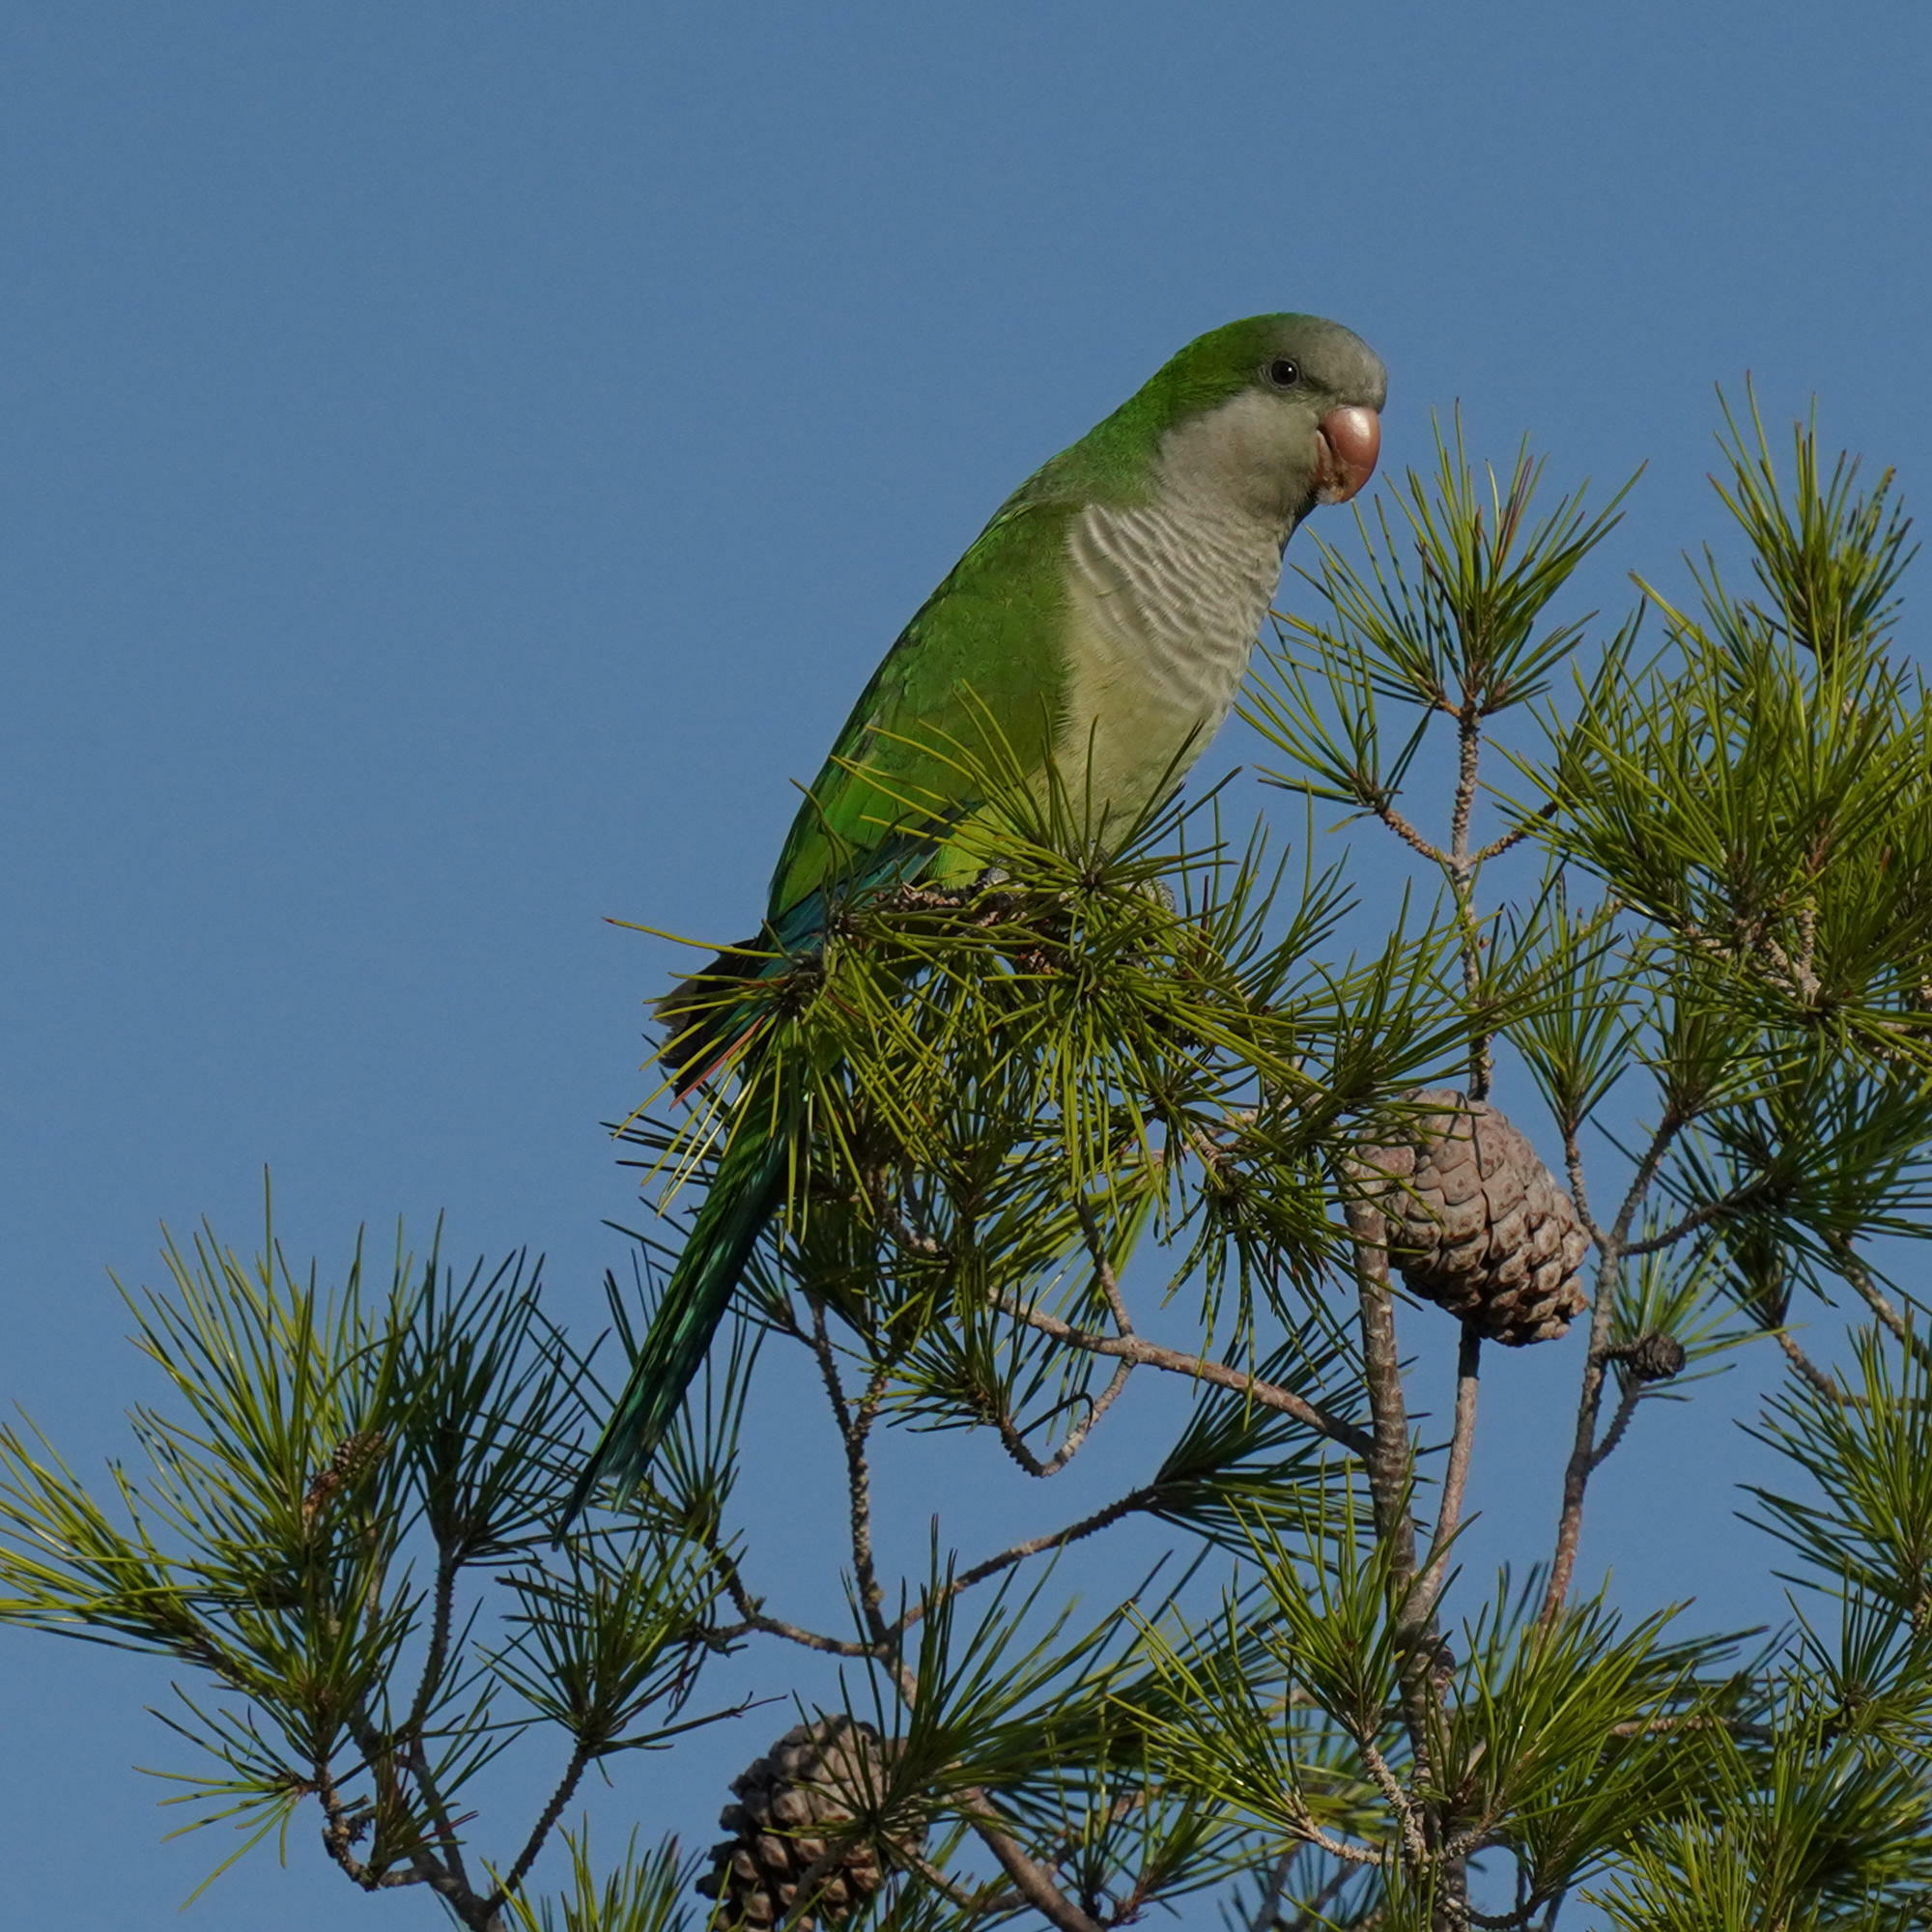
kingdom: Animalia
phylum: Chordata
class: Aves
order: Psittaciformes
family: Psittacidae
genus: Myiopsitta
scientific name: Myiopsitta monachus
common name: Monk parakeet
